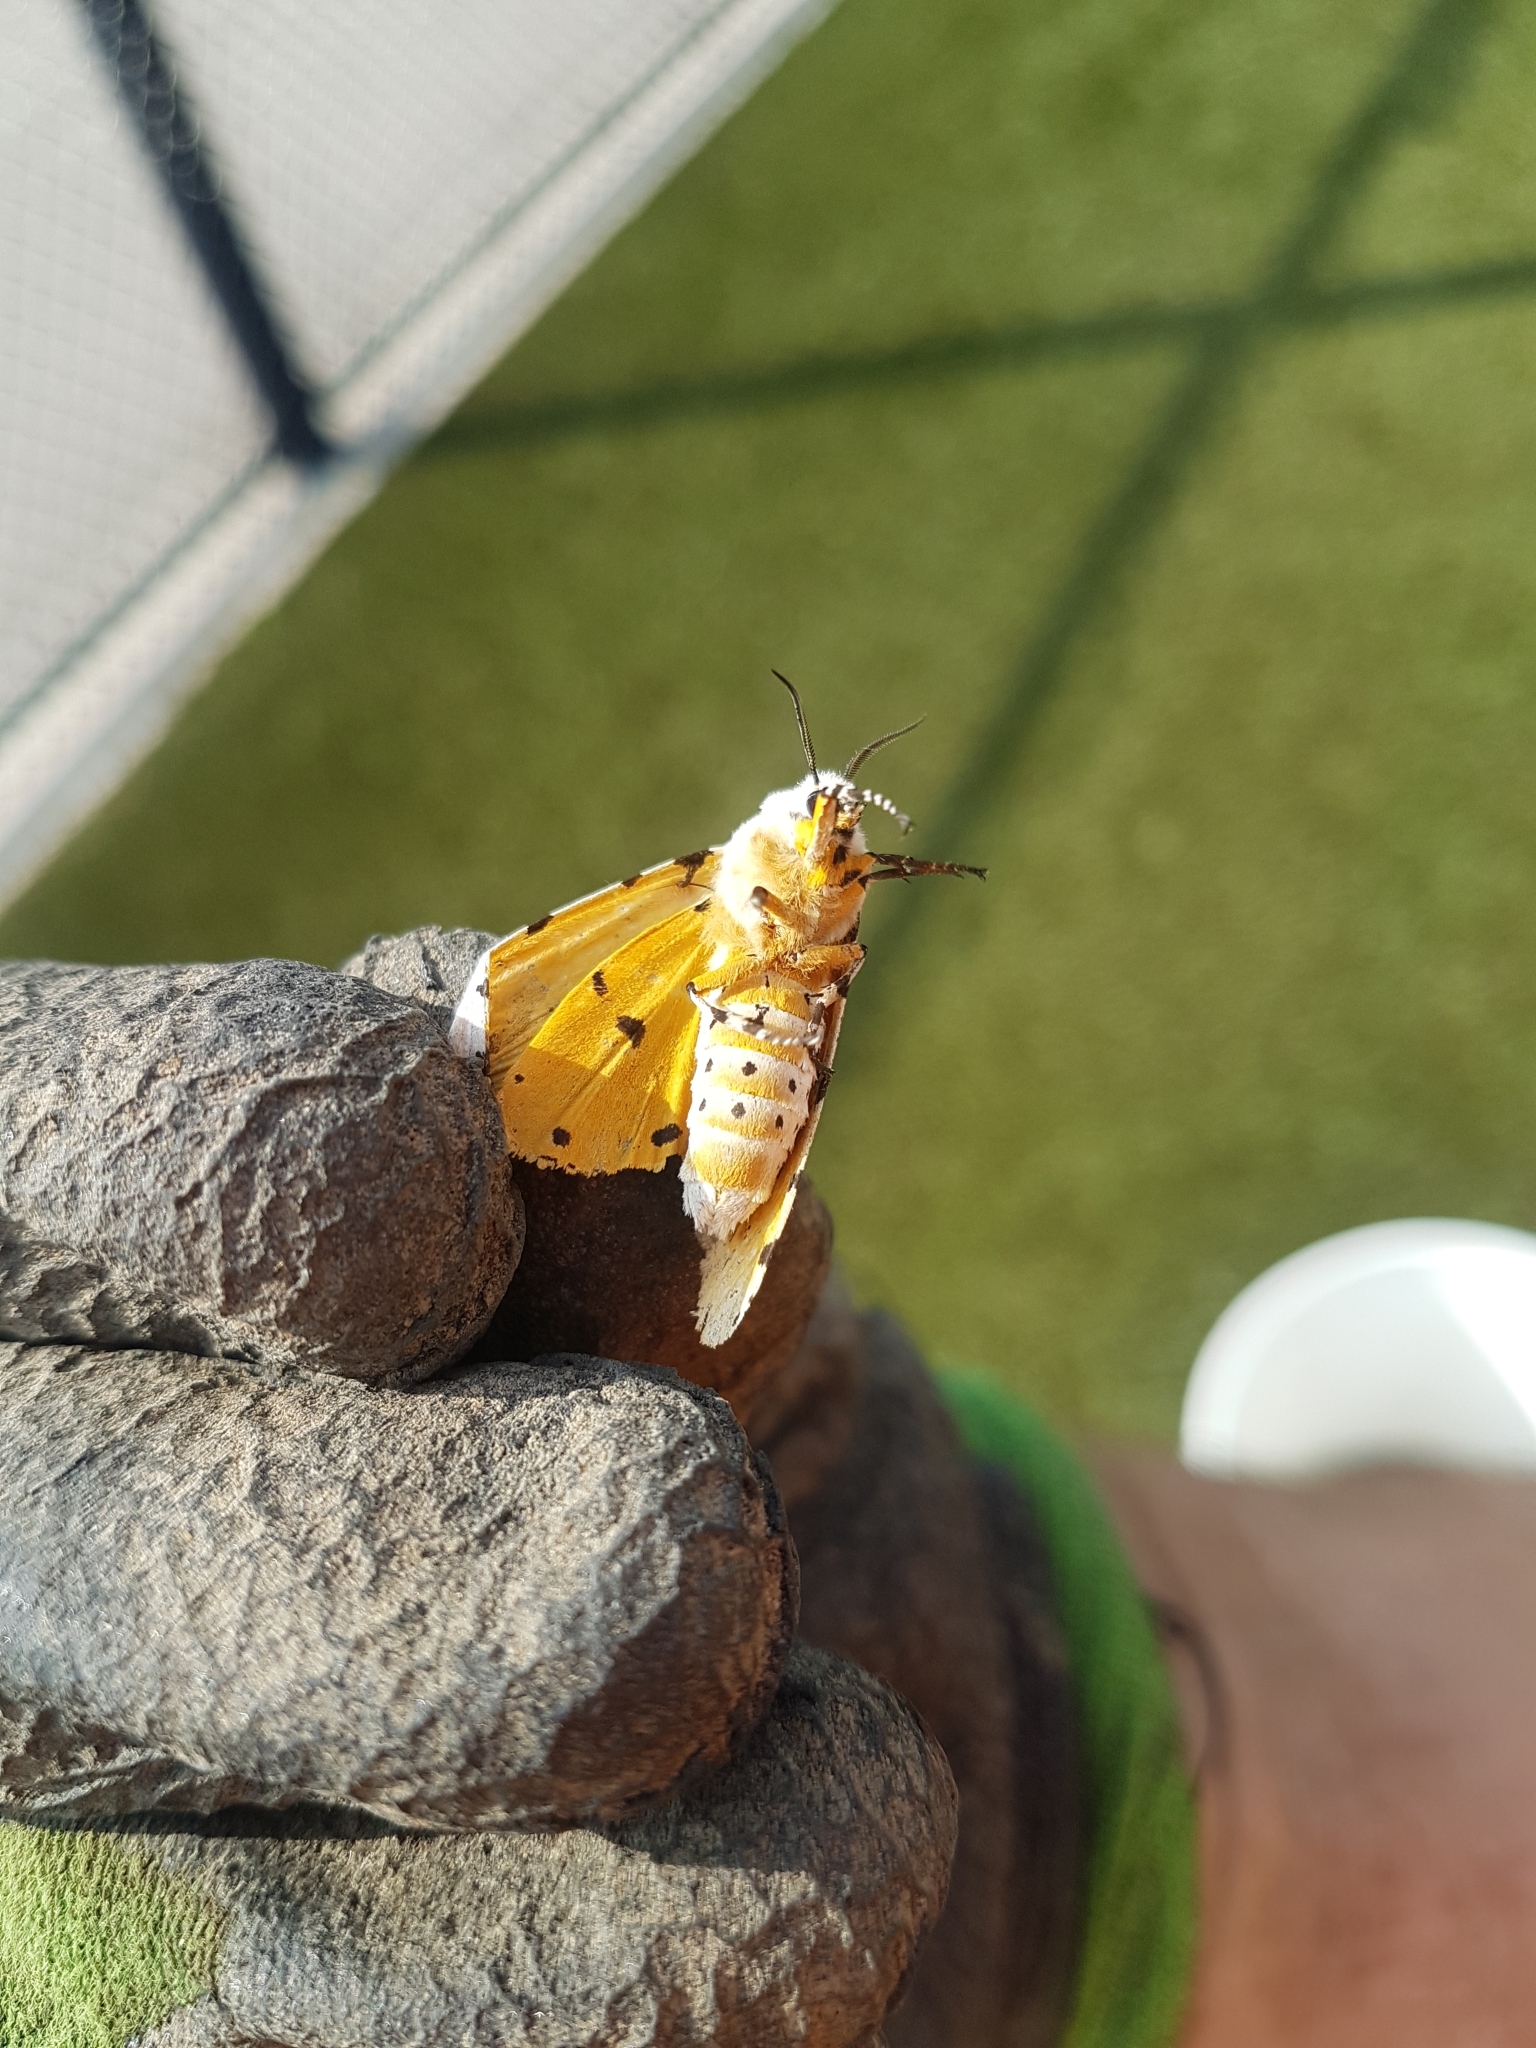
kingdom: Animalia
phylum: Arthropoda
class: Insecta
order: Lepidoptera
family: Erebidae
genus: Estigmene
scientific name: Estigmene acrea
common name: Salt marsh moth
